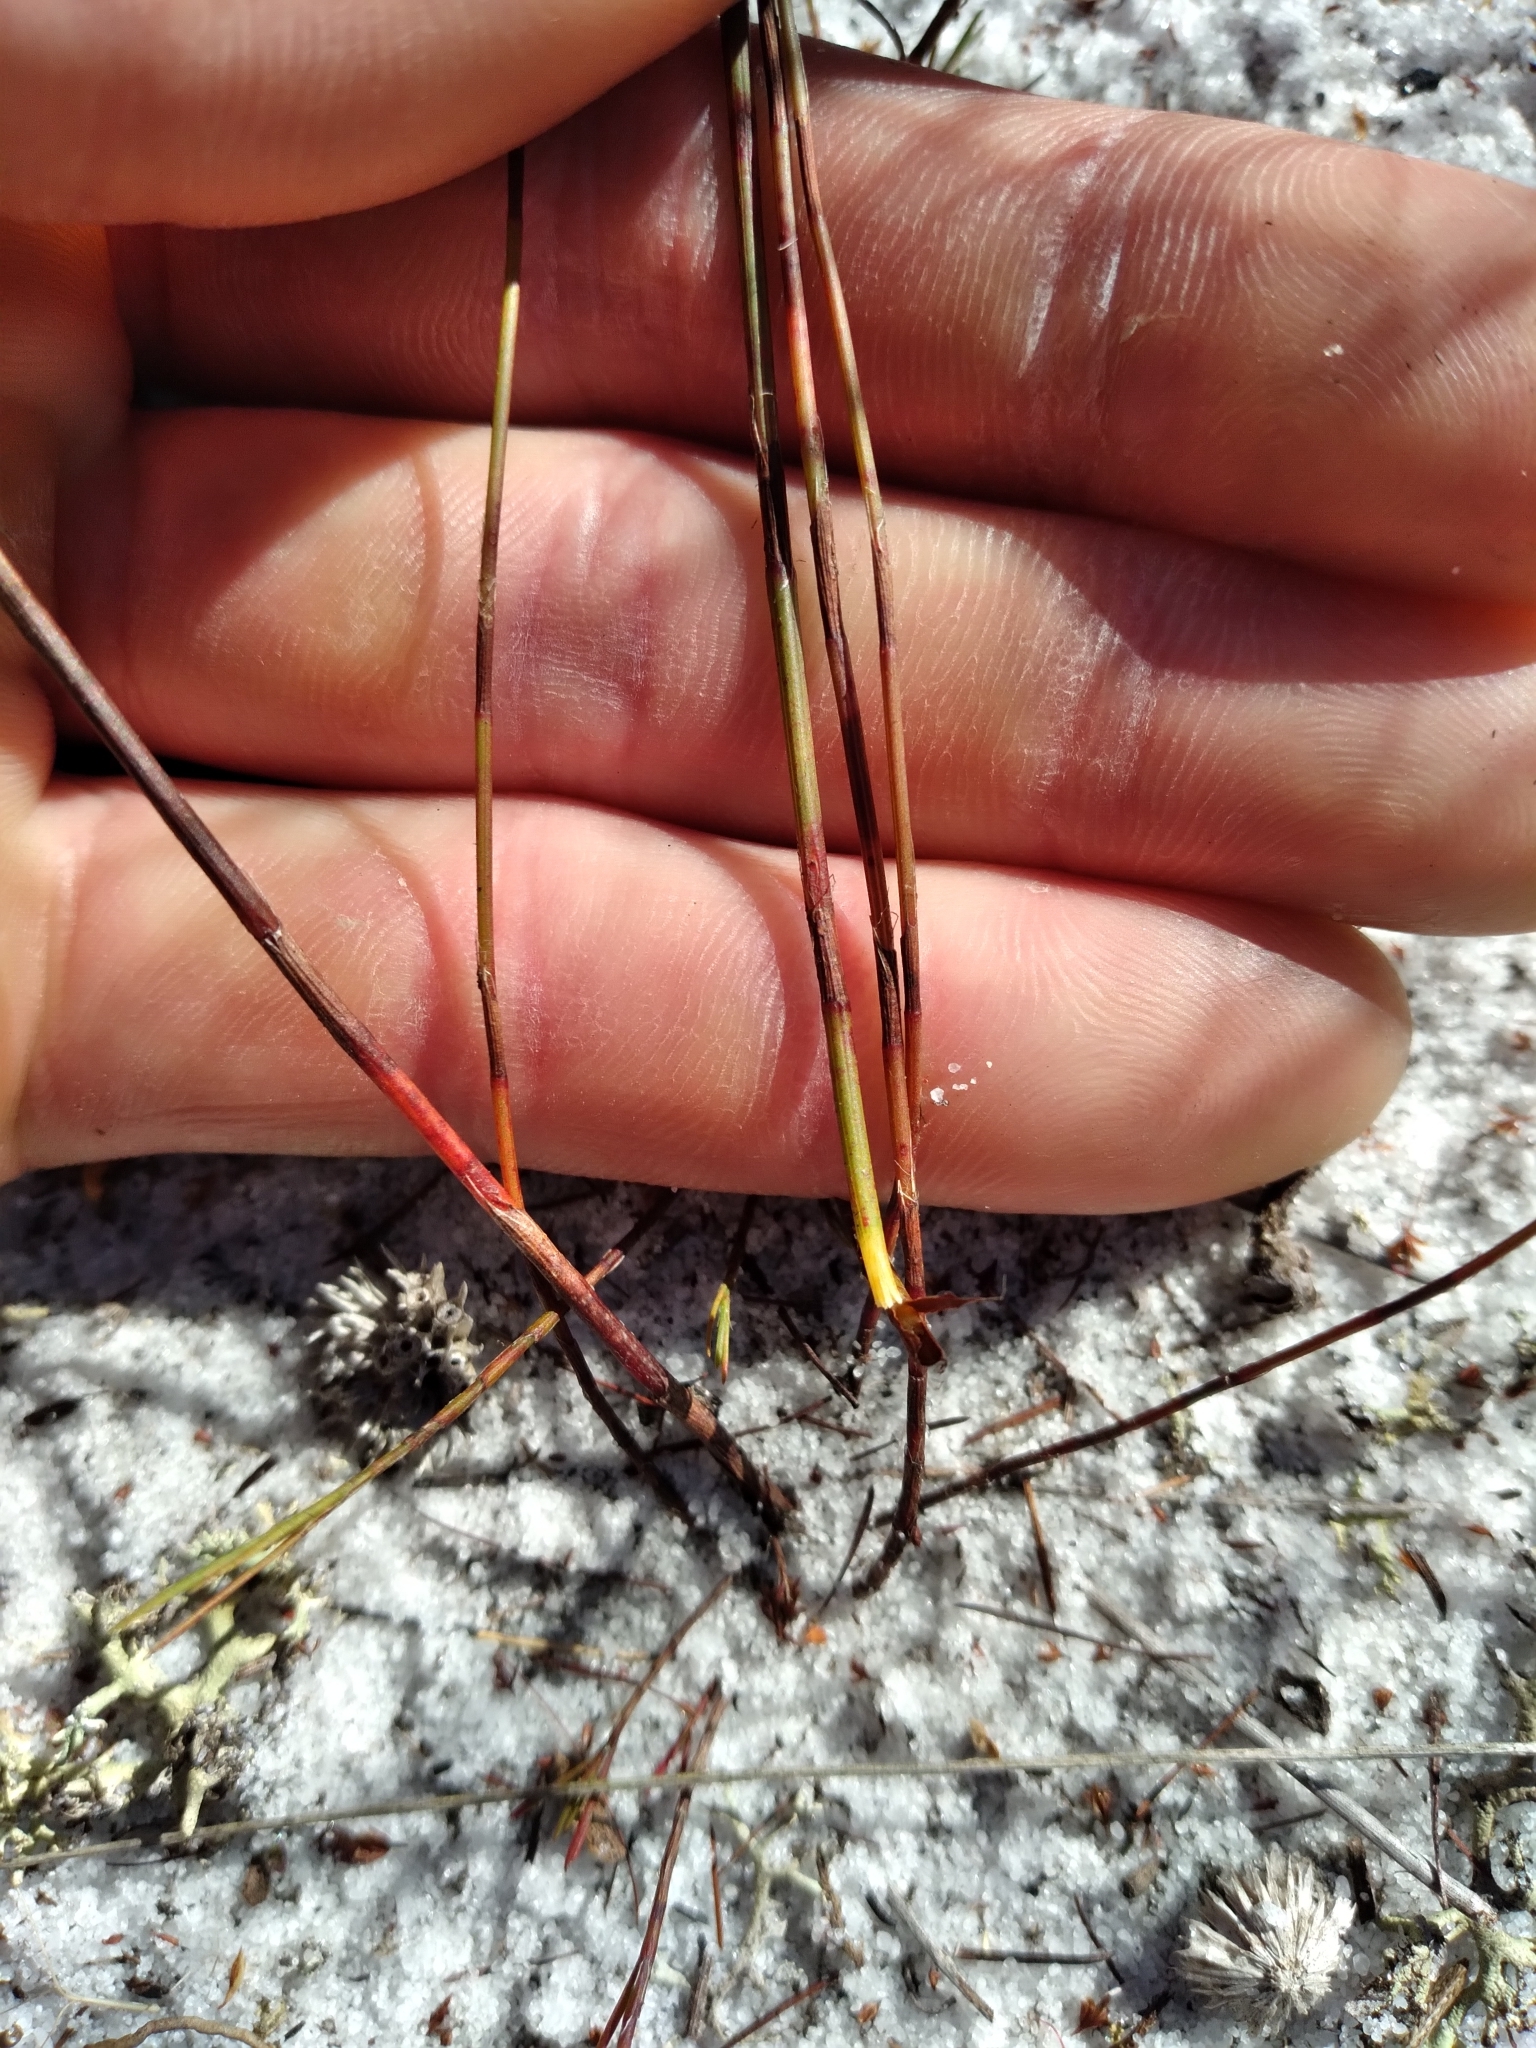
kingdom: Plantae
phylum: Tracheophyta
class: Magnoliopsida
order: Caryophyllales
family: Polygonaceae
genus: Polygonella
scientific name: Polygonella basiramia
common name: Hairy wireweed
